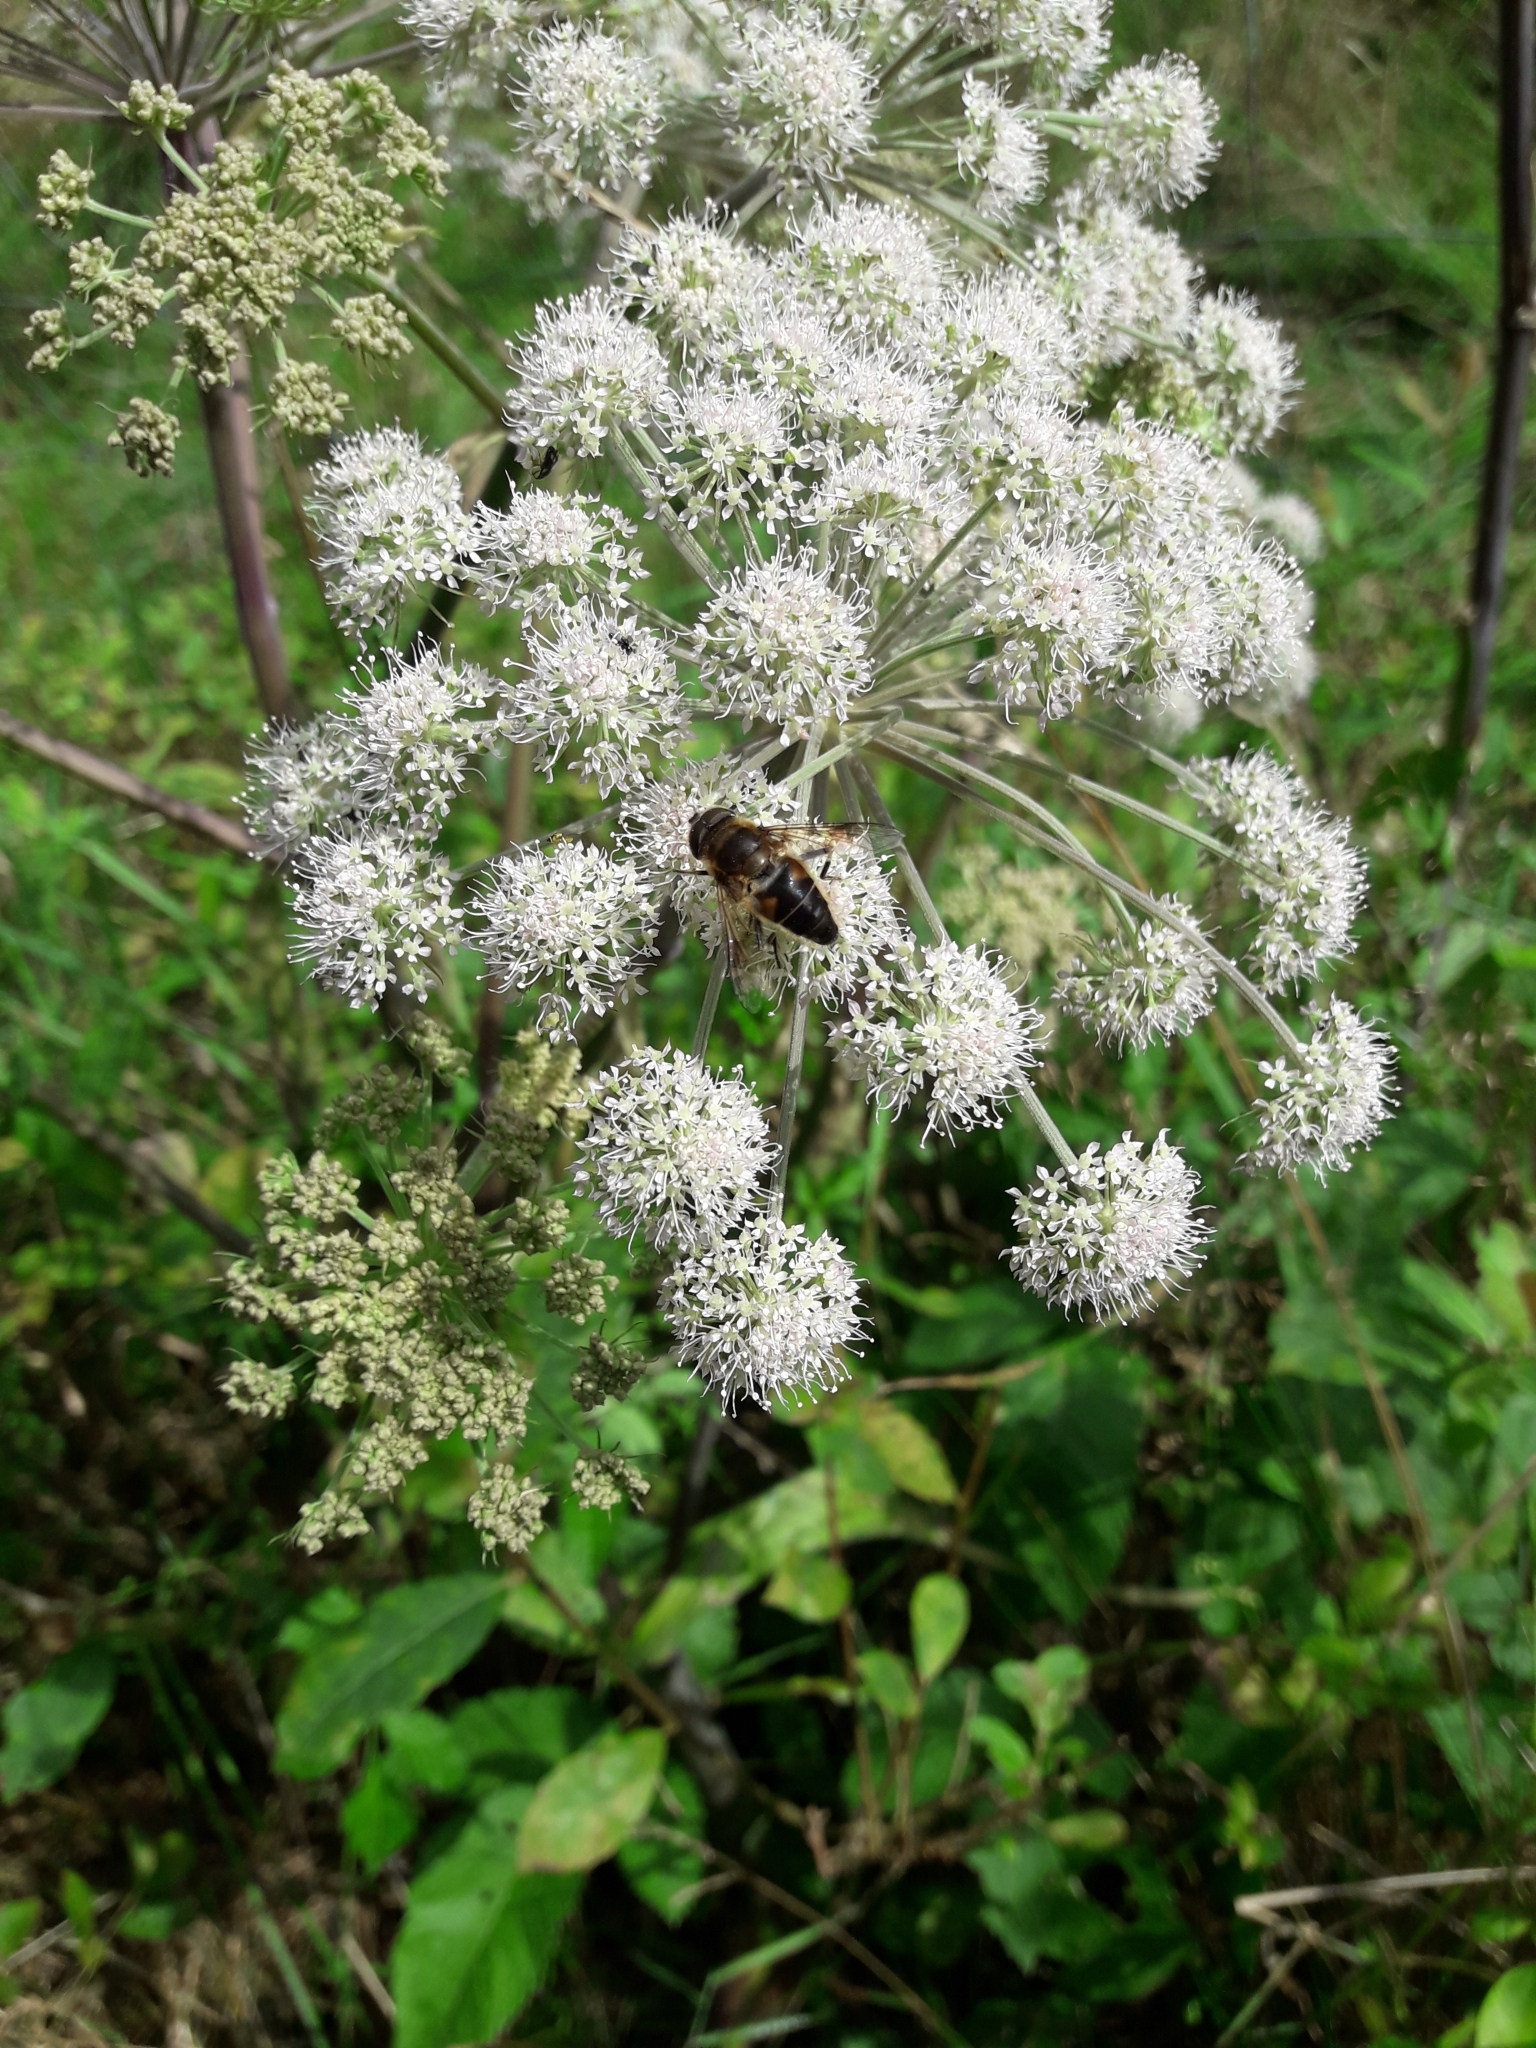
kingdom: Animalia
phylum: Arthropoda
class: Insecta
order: Diptera
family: Syrphidae
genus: Eristalis
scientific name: Eristalis pertinax
